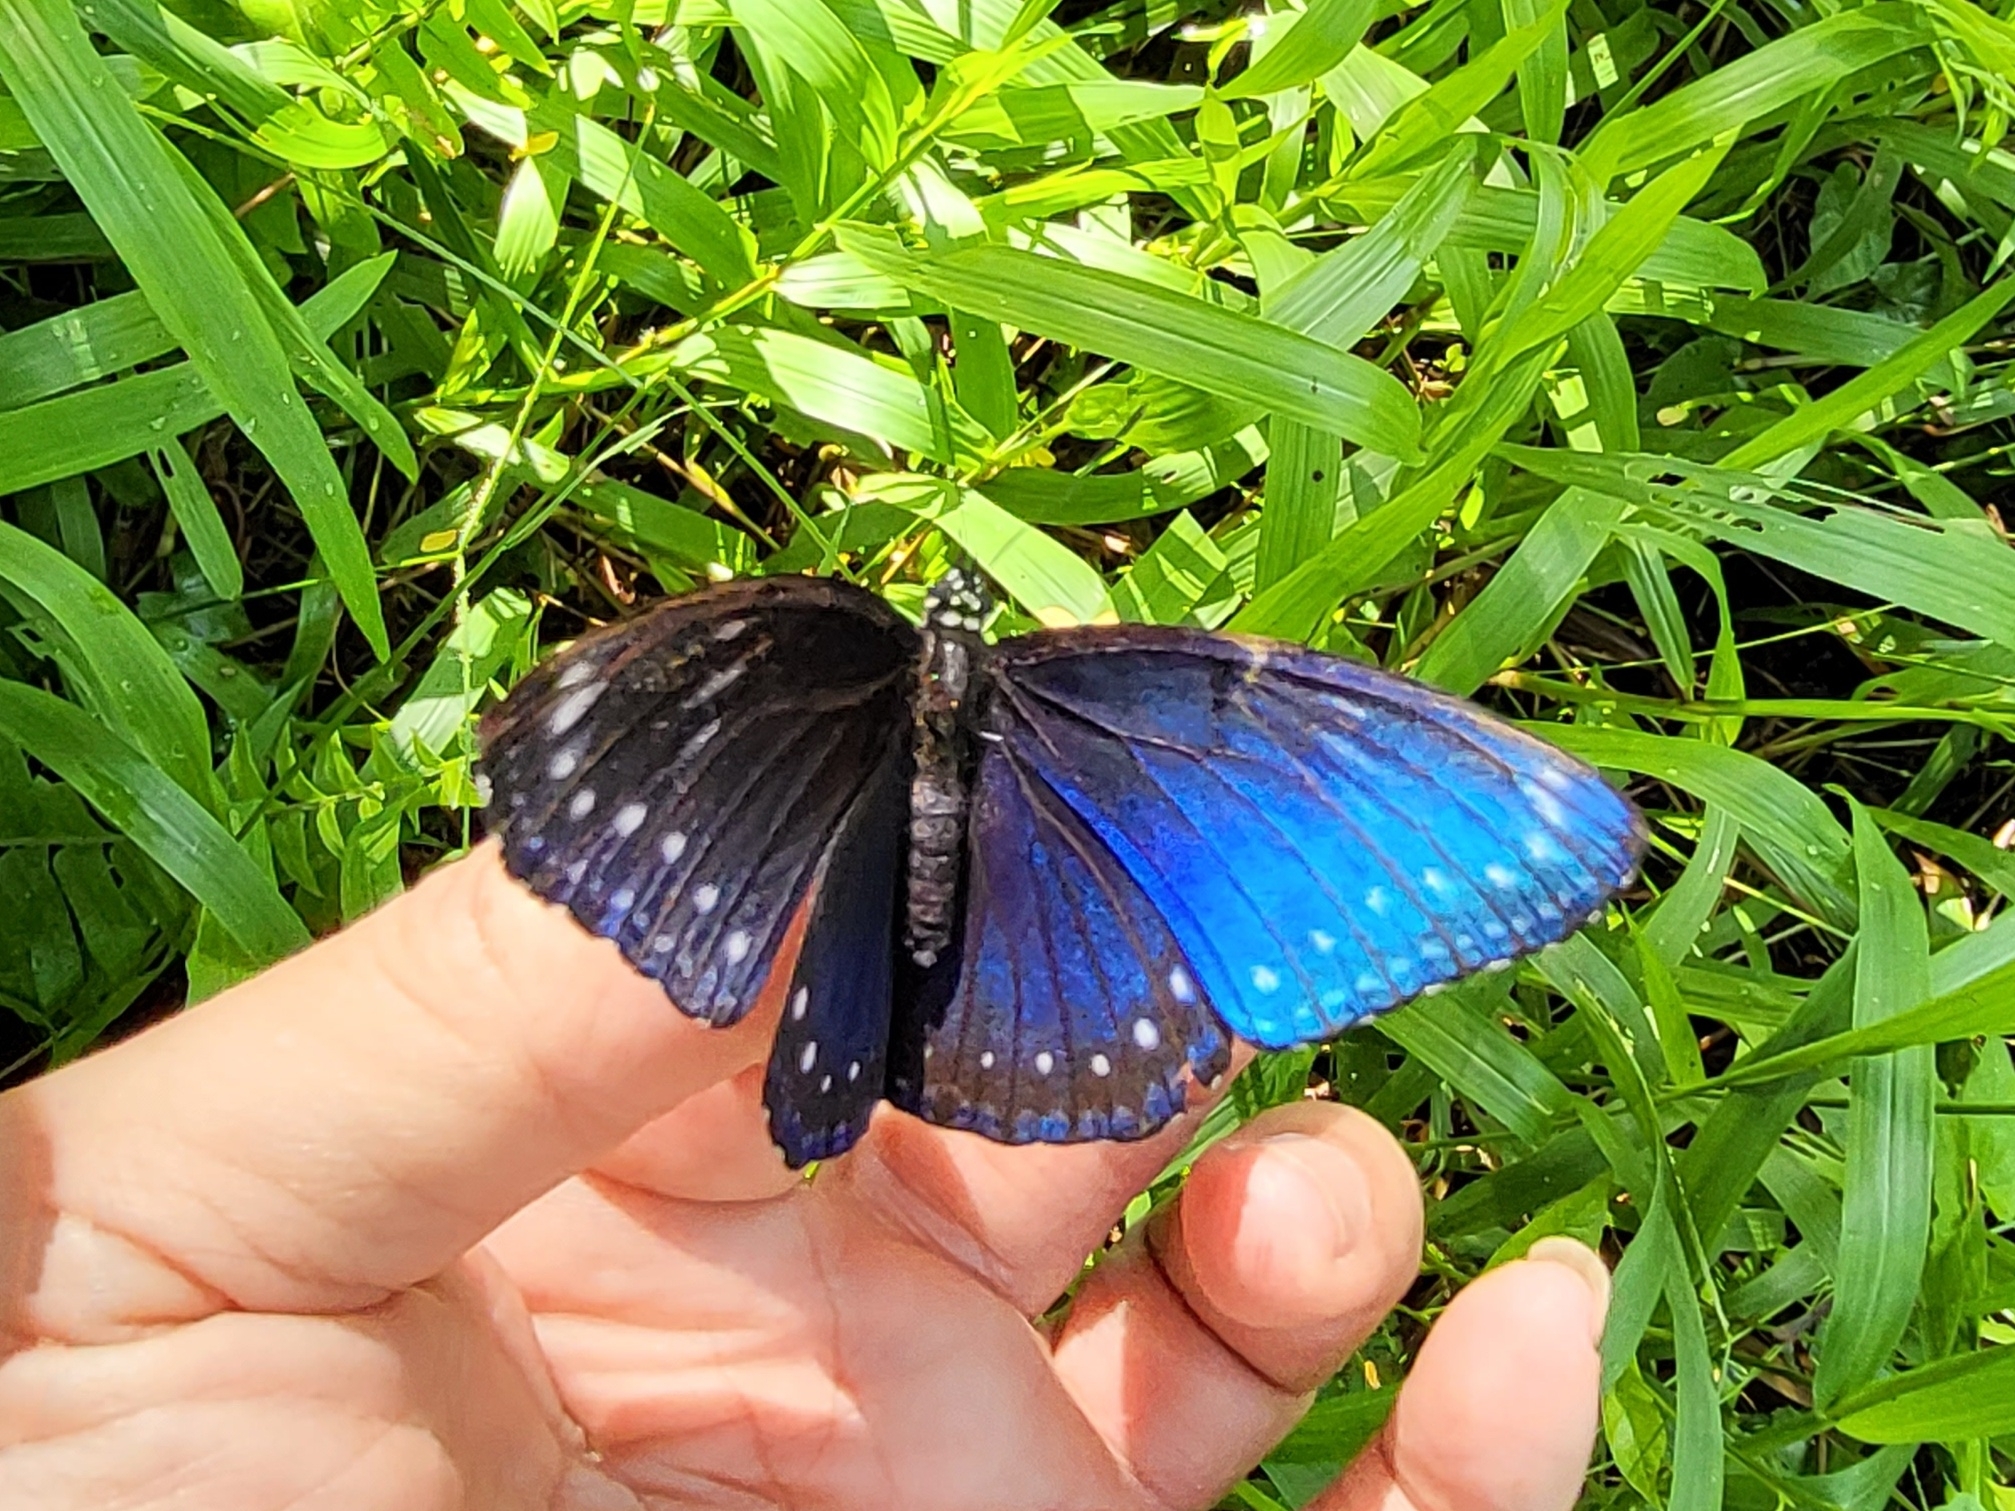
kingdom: Animalia
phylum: Arthropoda
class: Insecta
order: Lepidoptera
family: Nymphalidae
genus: Hypolimnas
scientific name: Hypolimnas anomala
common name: Malayan eggfly
